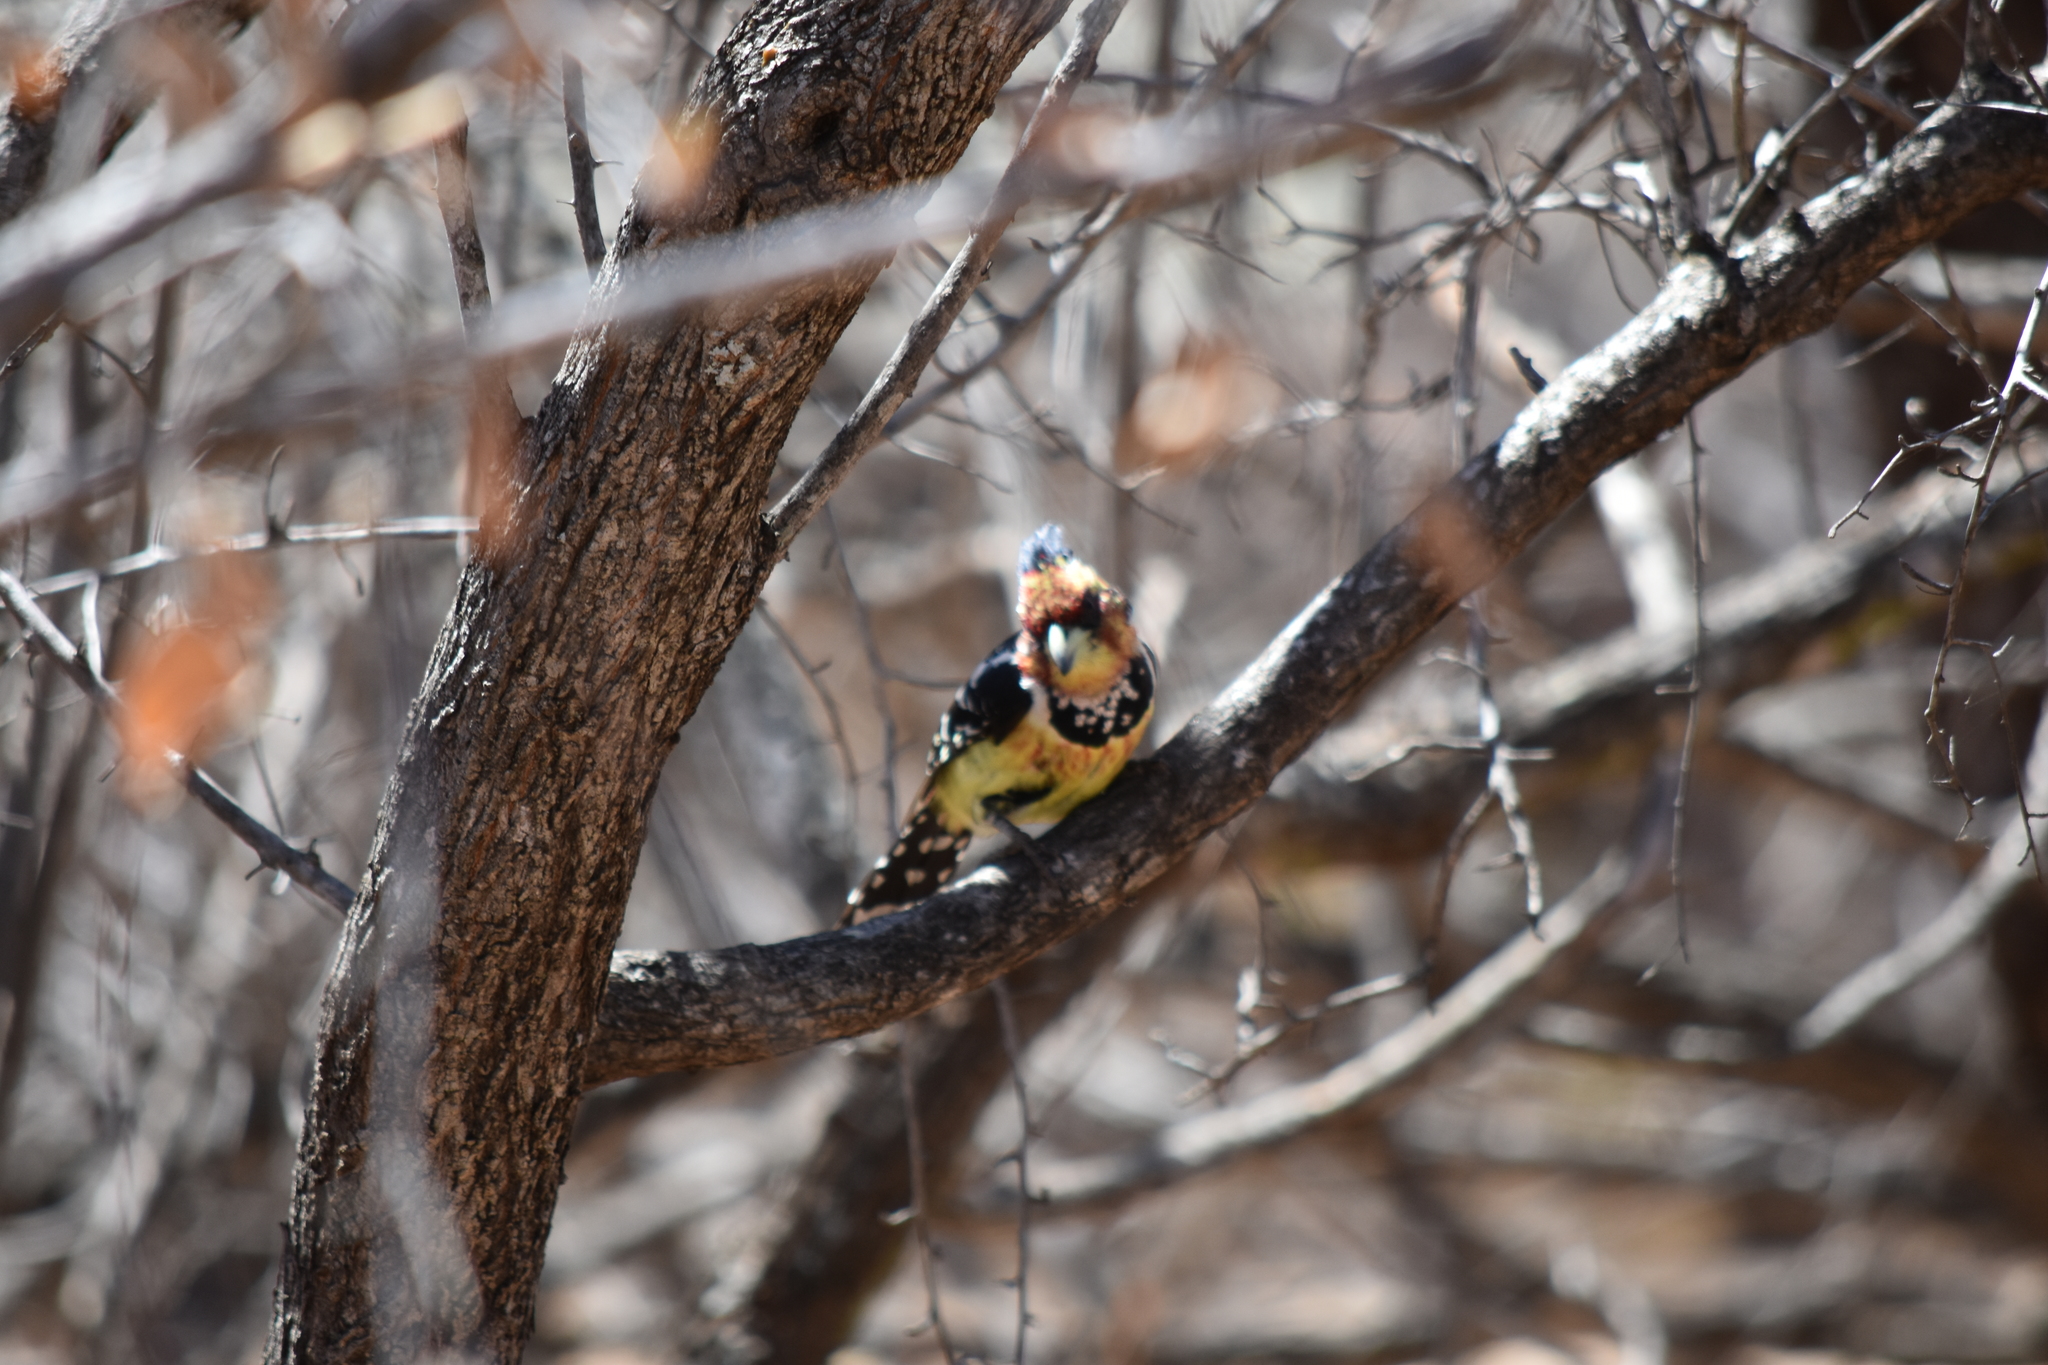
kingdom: Animalia
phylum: Chordata
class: Aves
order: Piciformes
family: Lybiidae
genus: Trachyphonus
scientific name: Trachyphonus vaillantii
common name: Crested barbet
